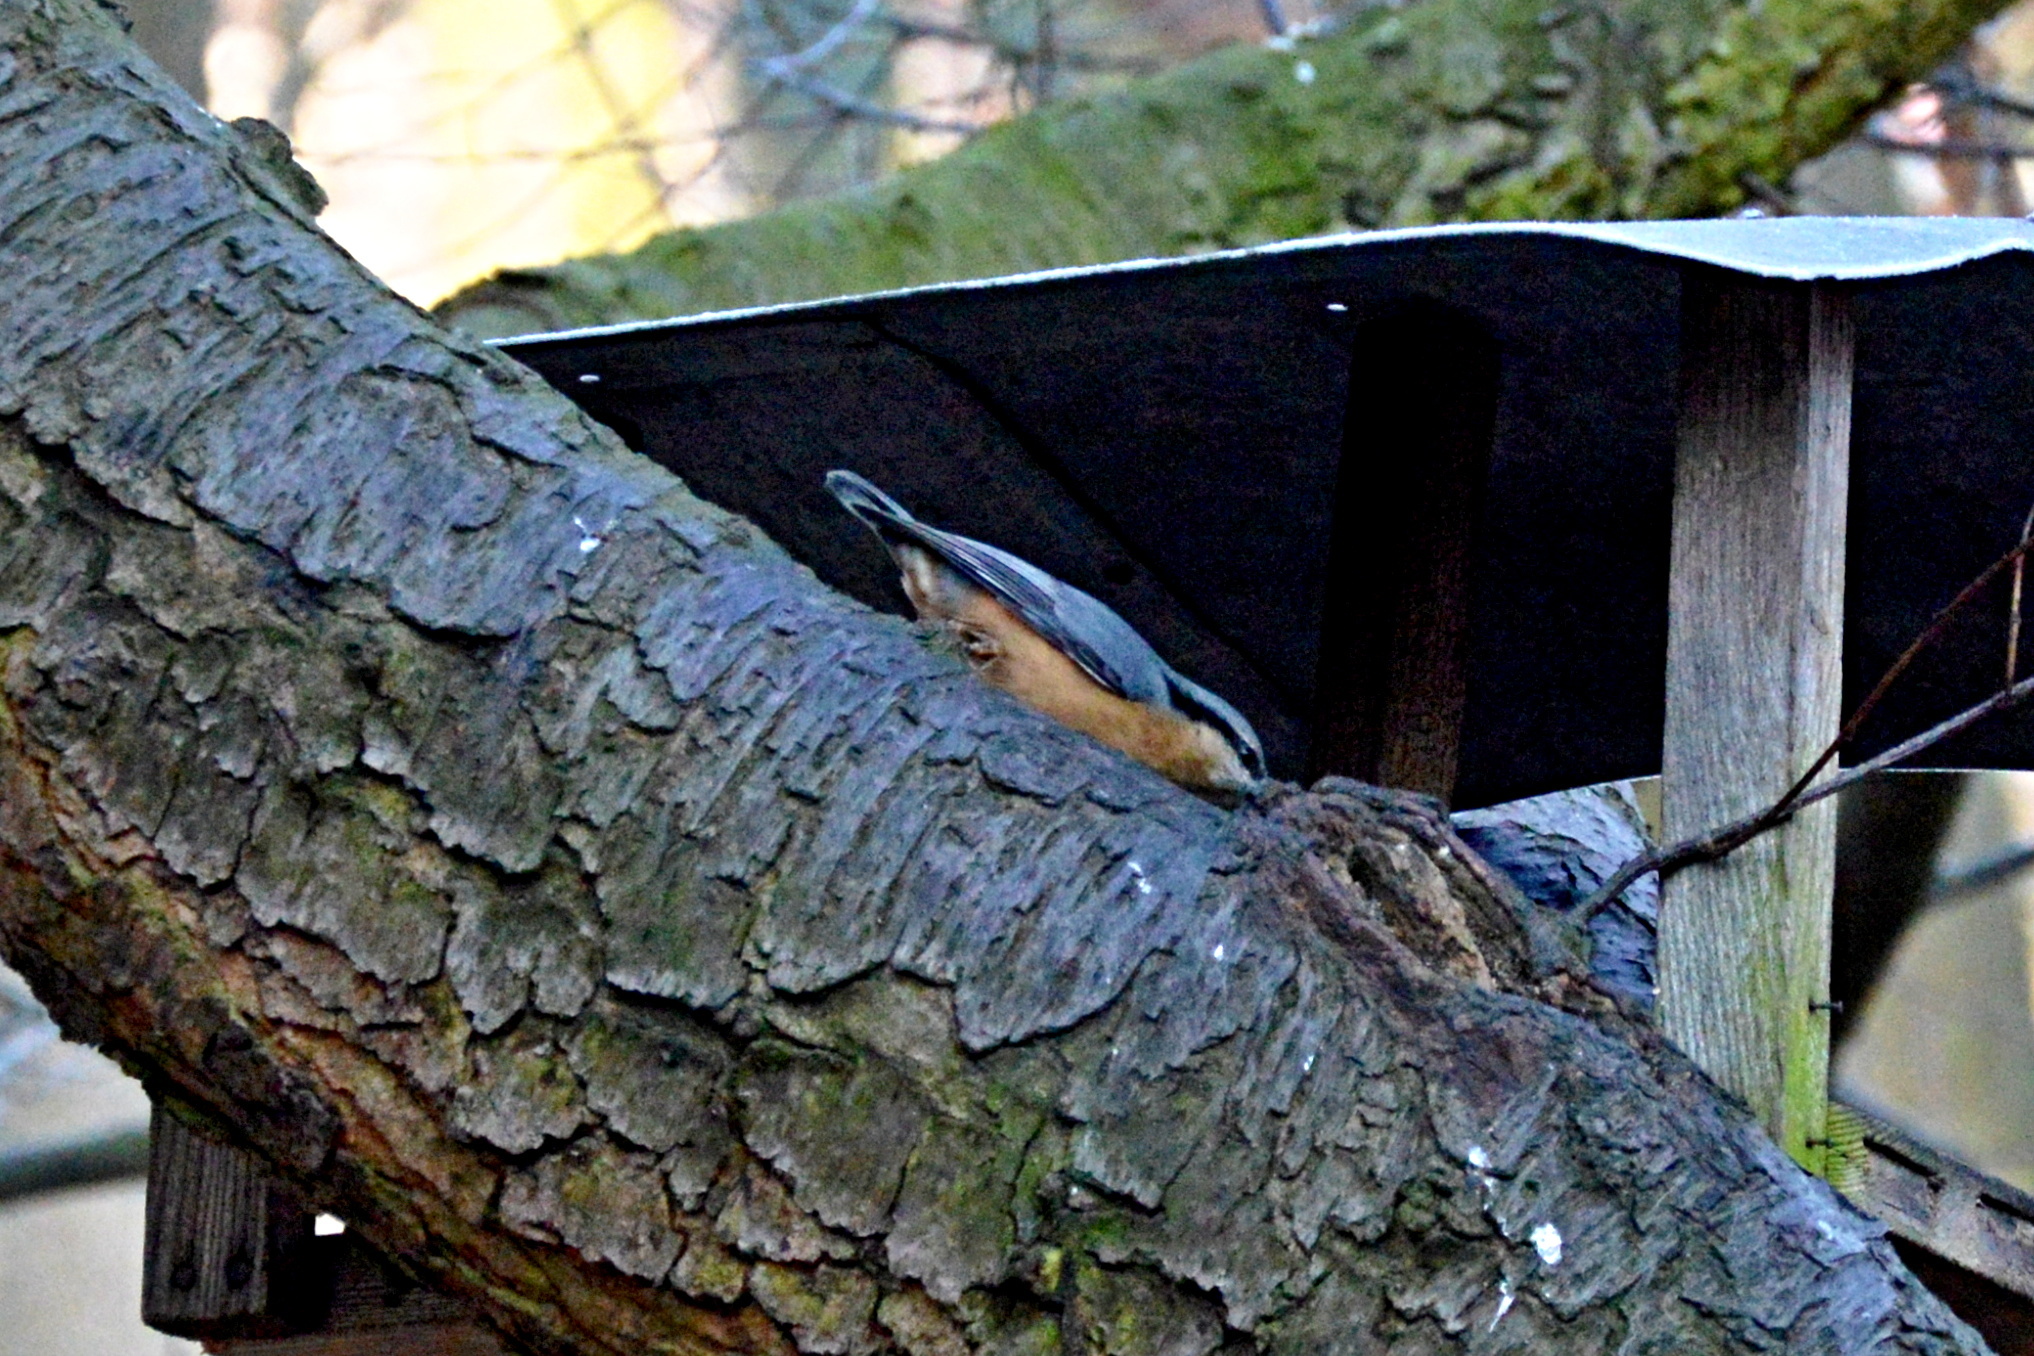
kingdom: Animalia
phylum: Chordata
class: Aves
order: Passeriformes
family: Sittidae
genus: Sitta
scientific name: Sitta europaea
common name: Eurasian nuthatch
